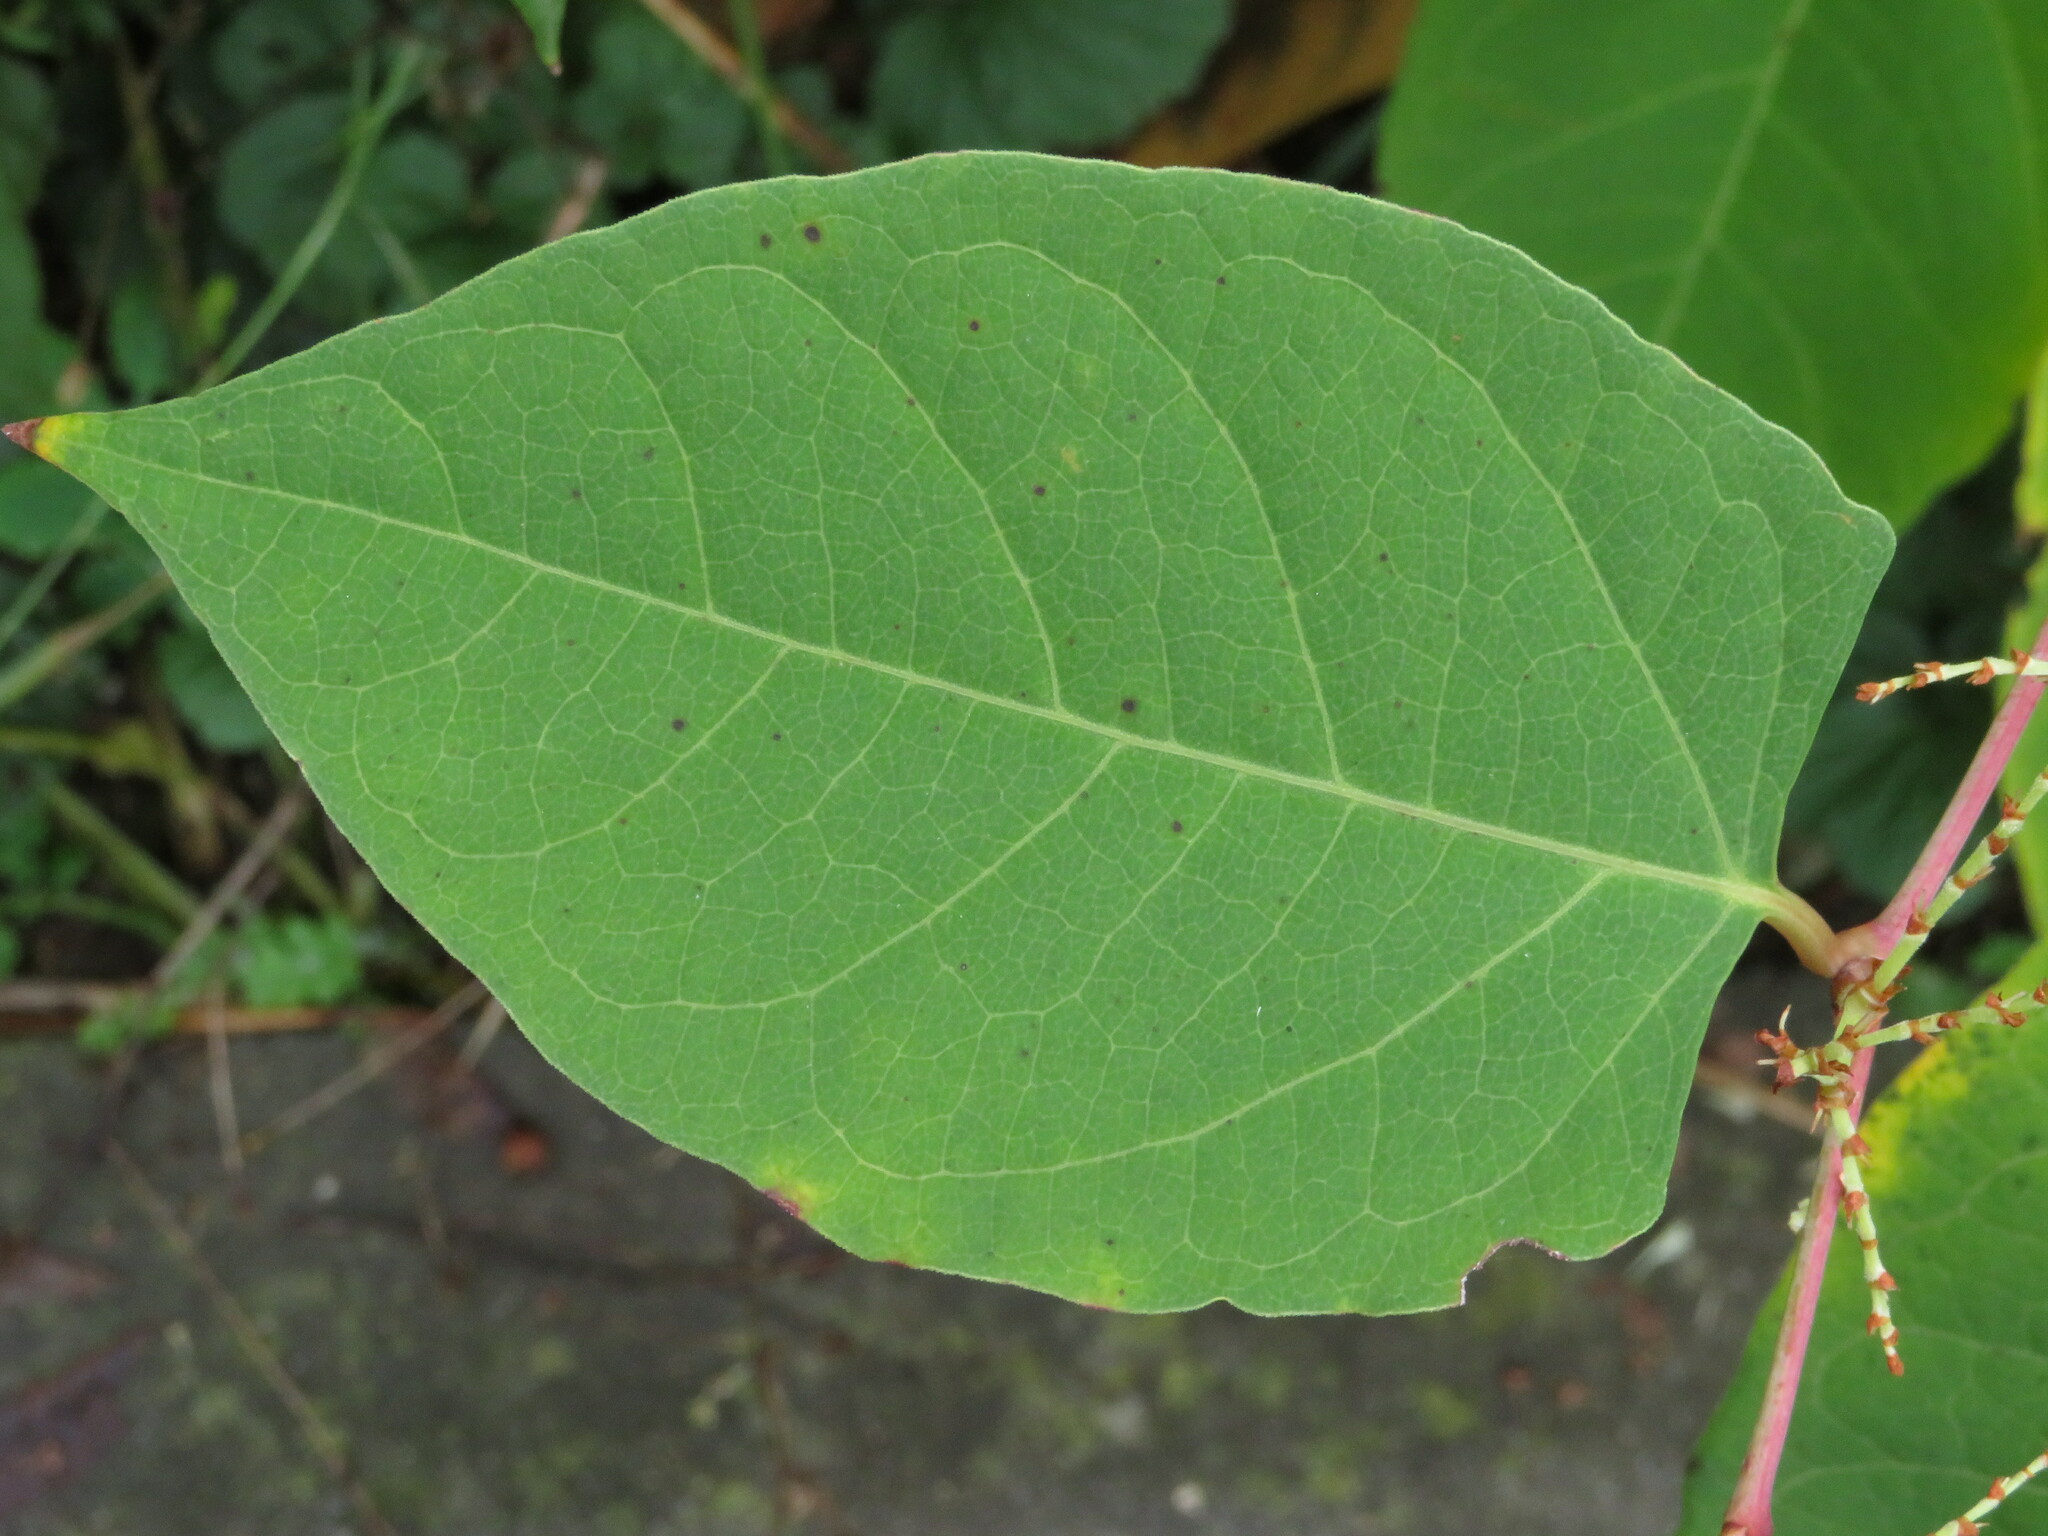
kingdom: Plantae
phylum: Tracheophyta
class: Magnoliopsida
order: Caryophyllales
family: Polygonaceae
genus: Reynoutria
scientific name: Reynoutria japonica
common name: Japanese knotweed
